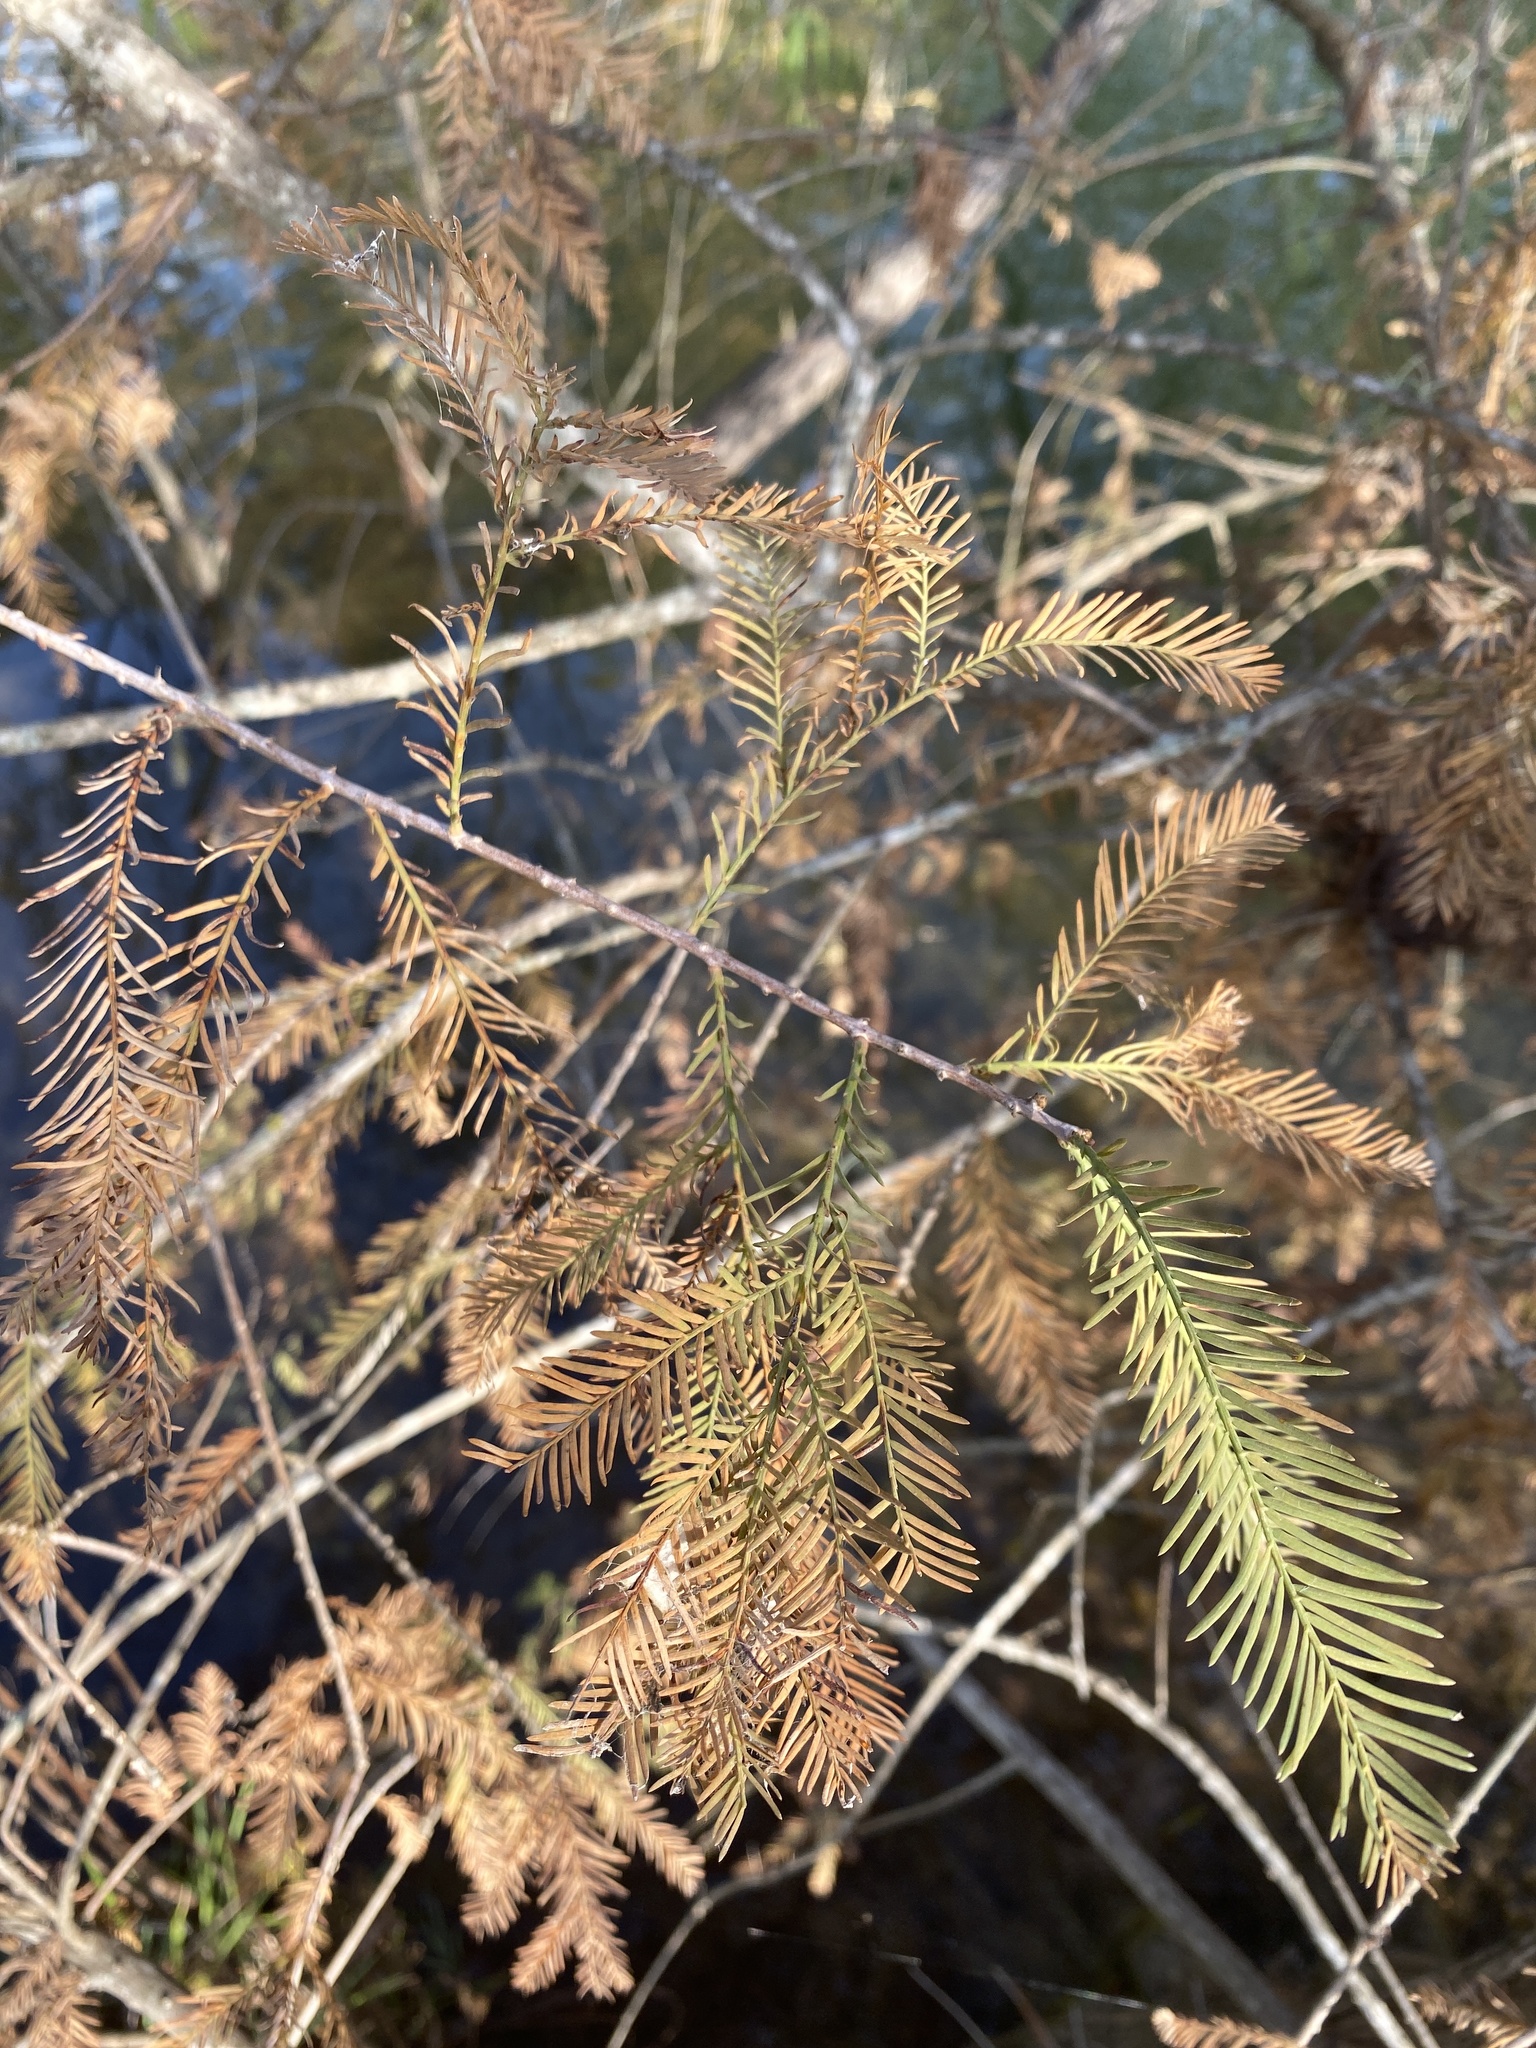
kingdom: Plantae
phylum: Tracheophyta
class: Pinopsida
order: Pinales
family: Cupressaceae
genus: Taxodium
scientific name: Taxodium distichum
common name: Bald cypress
